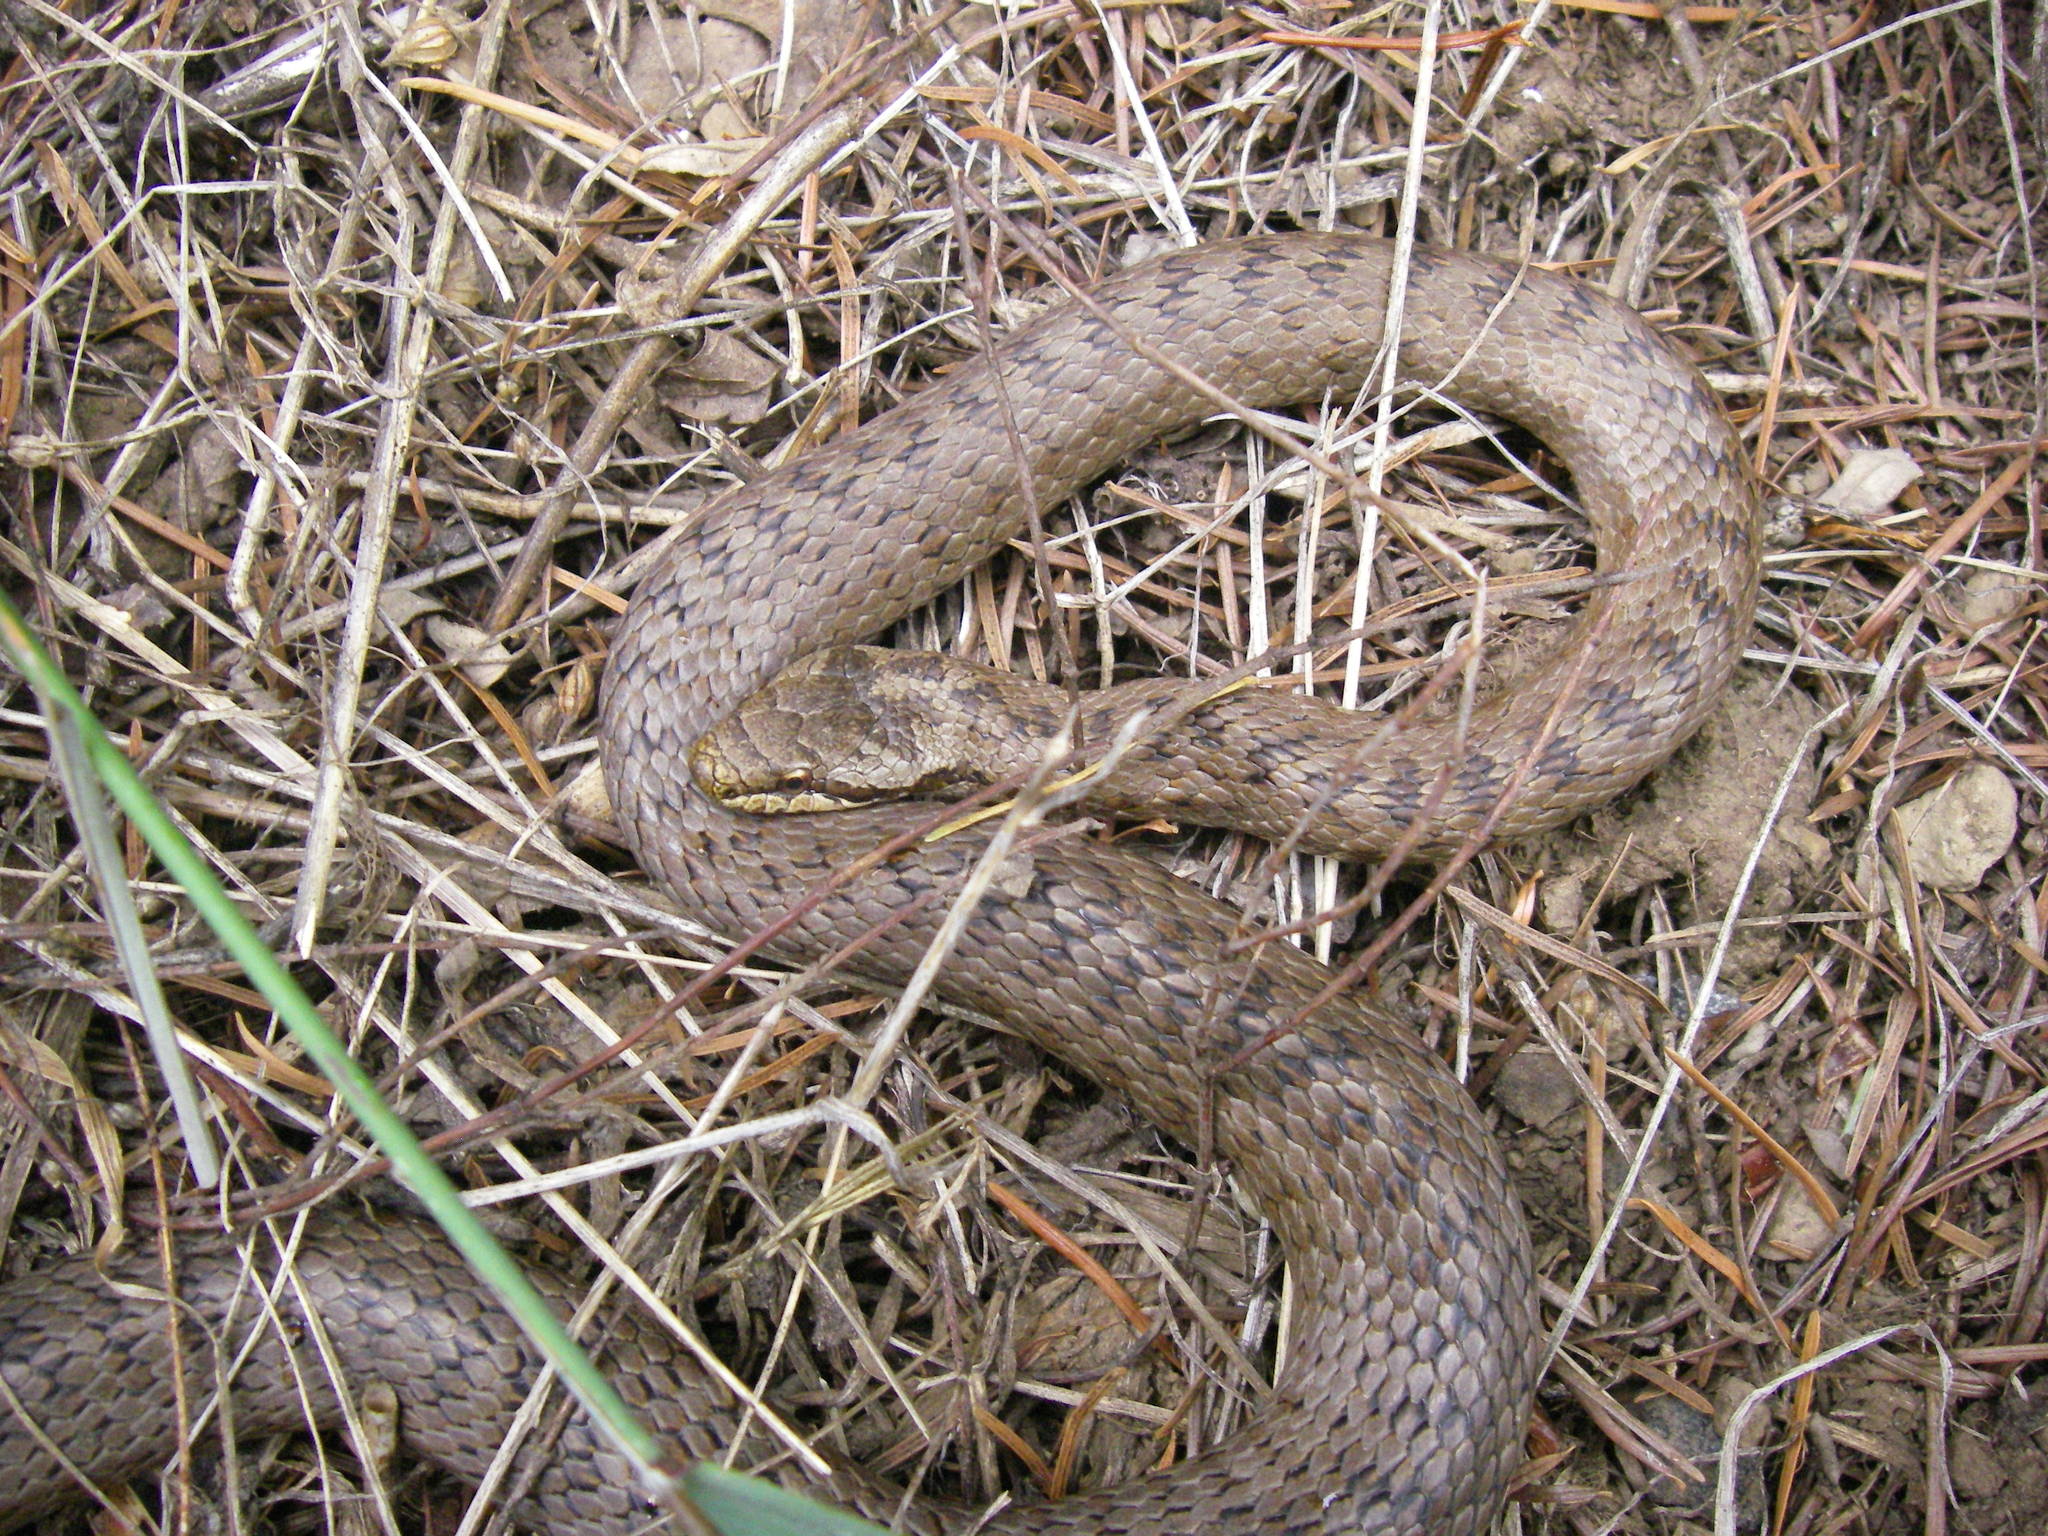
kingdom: Animalia
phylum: Chordata
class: Squamata
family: Colubridae
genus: Coronella
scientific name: Coronella austriaca
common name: Smooth snake
